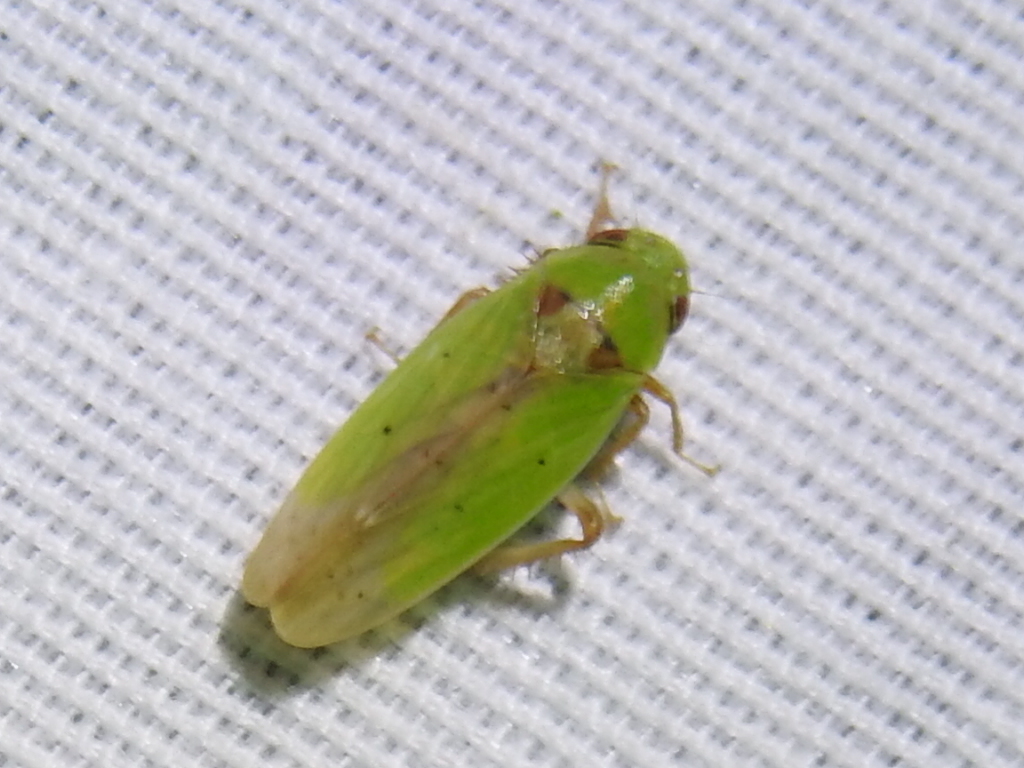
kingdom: Animalia
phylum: Arthropoda
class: Insecta
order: Hemiptera
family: Cicadellidae
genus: Ponana
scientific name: Ponana
